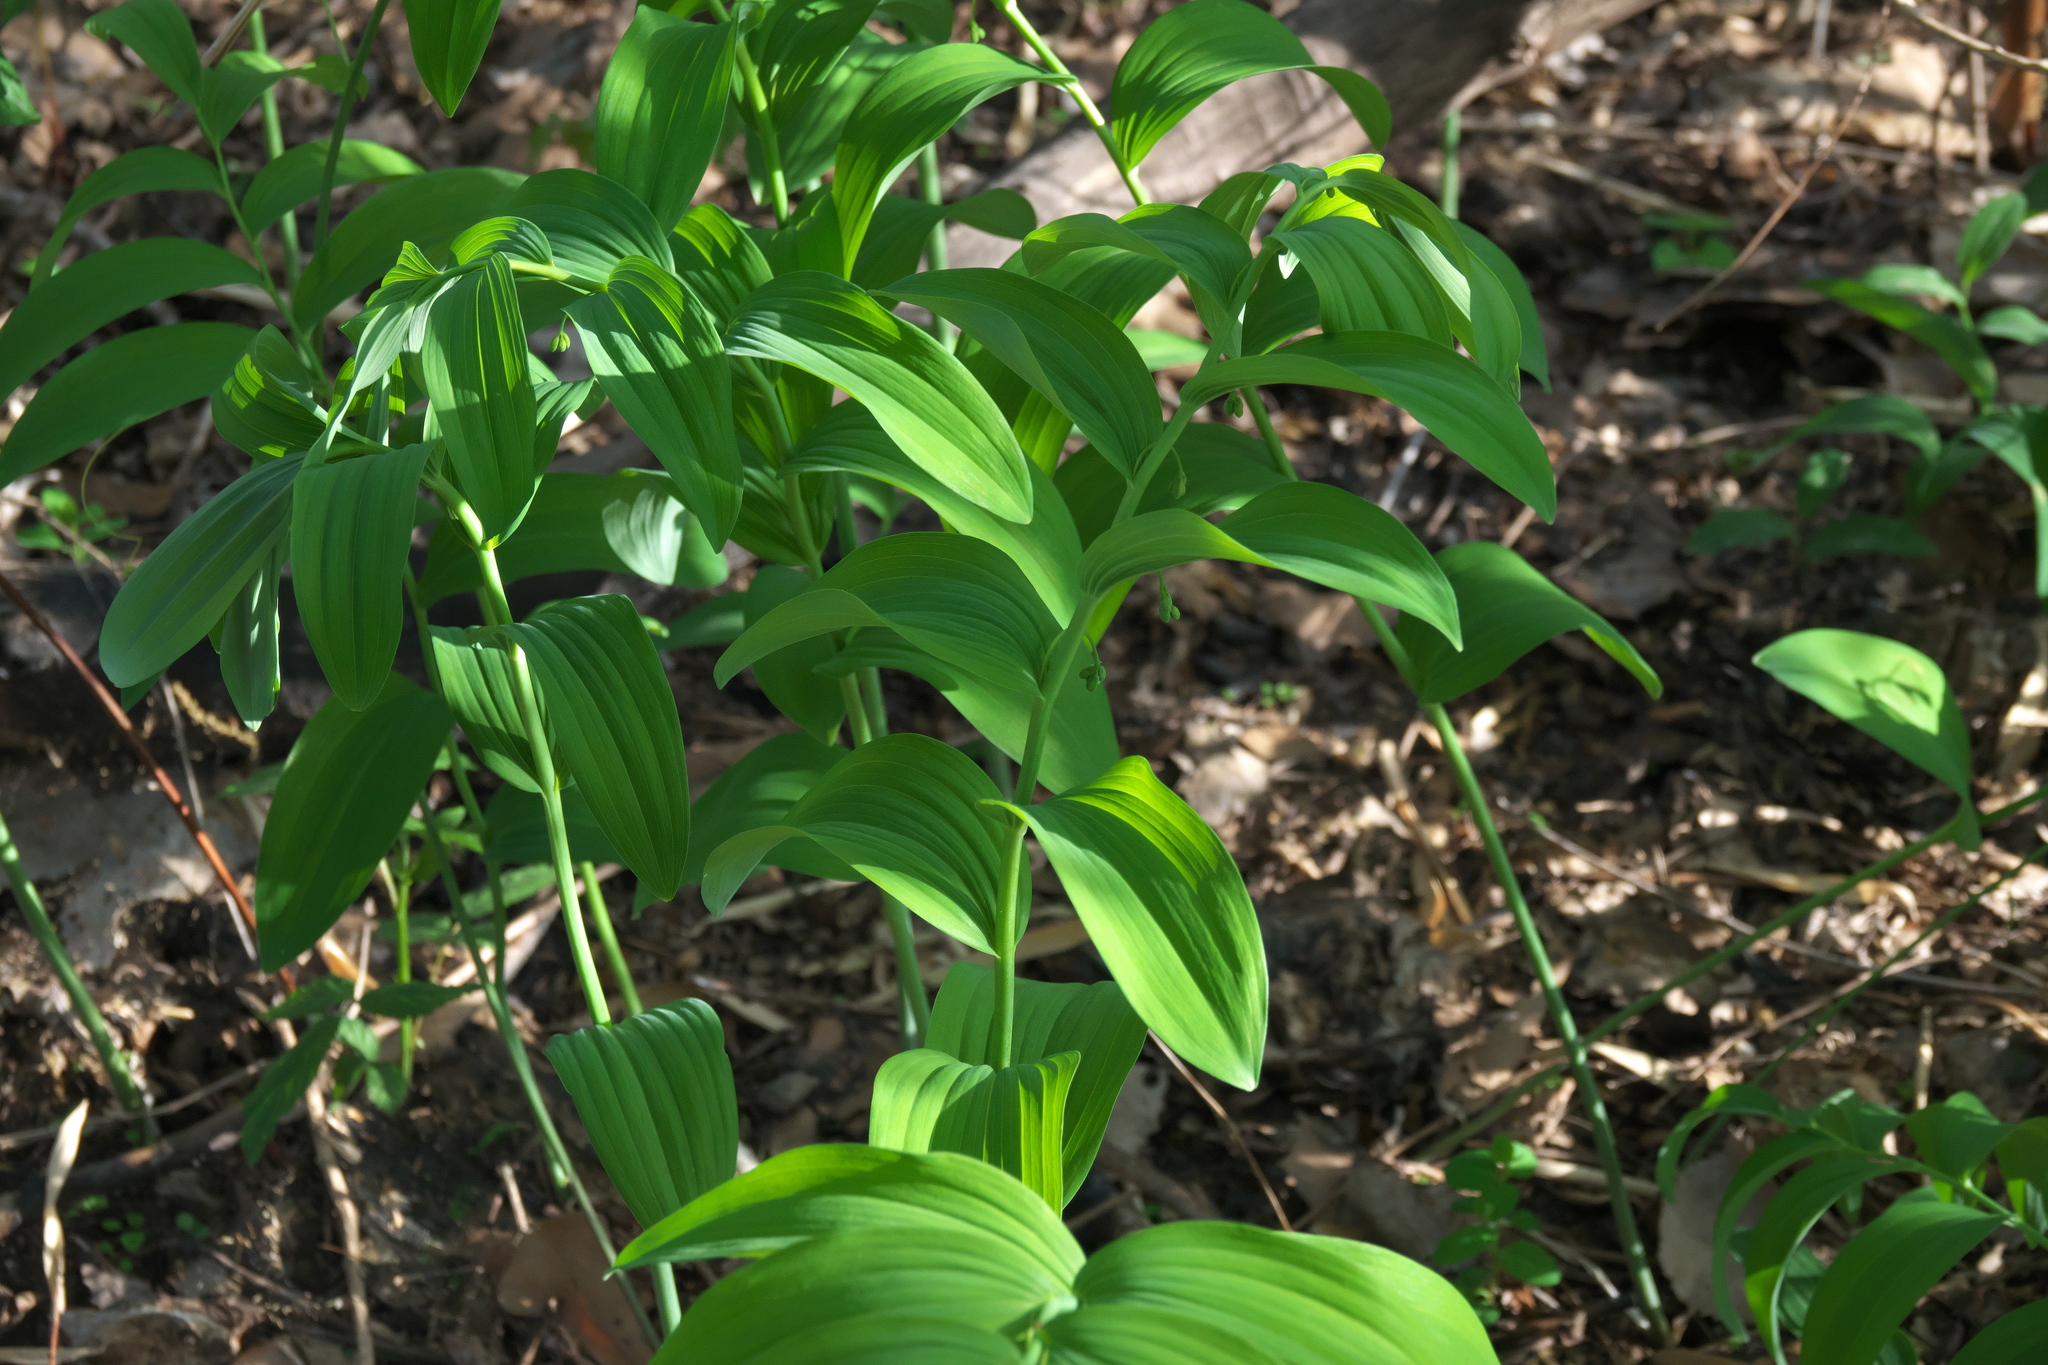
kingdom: Plantae
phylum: Tracheophyta
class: Liliopsida
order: Asparagales
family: Asparagaceae
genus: Polygonatum
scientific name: Polygonatum biflorum
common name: American solomon's-seal
